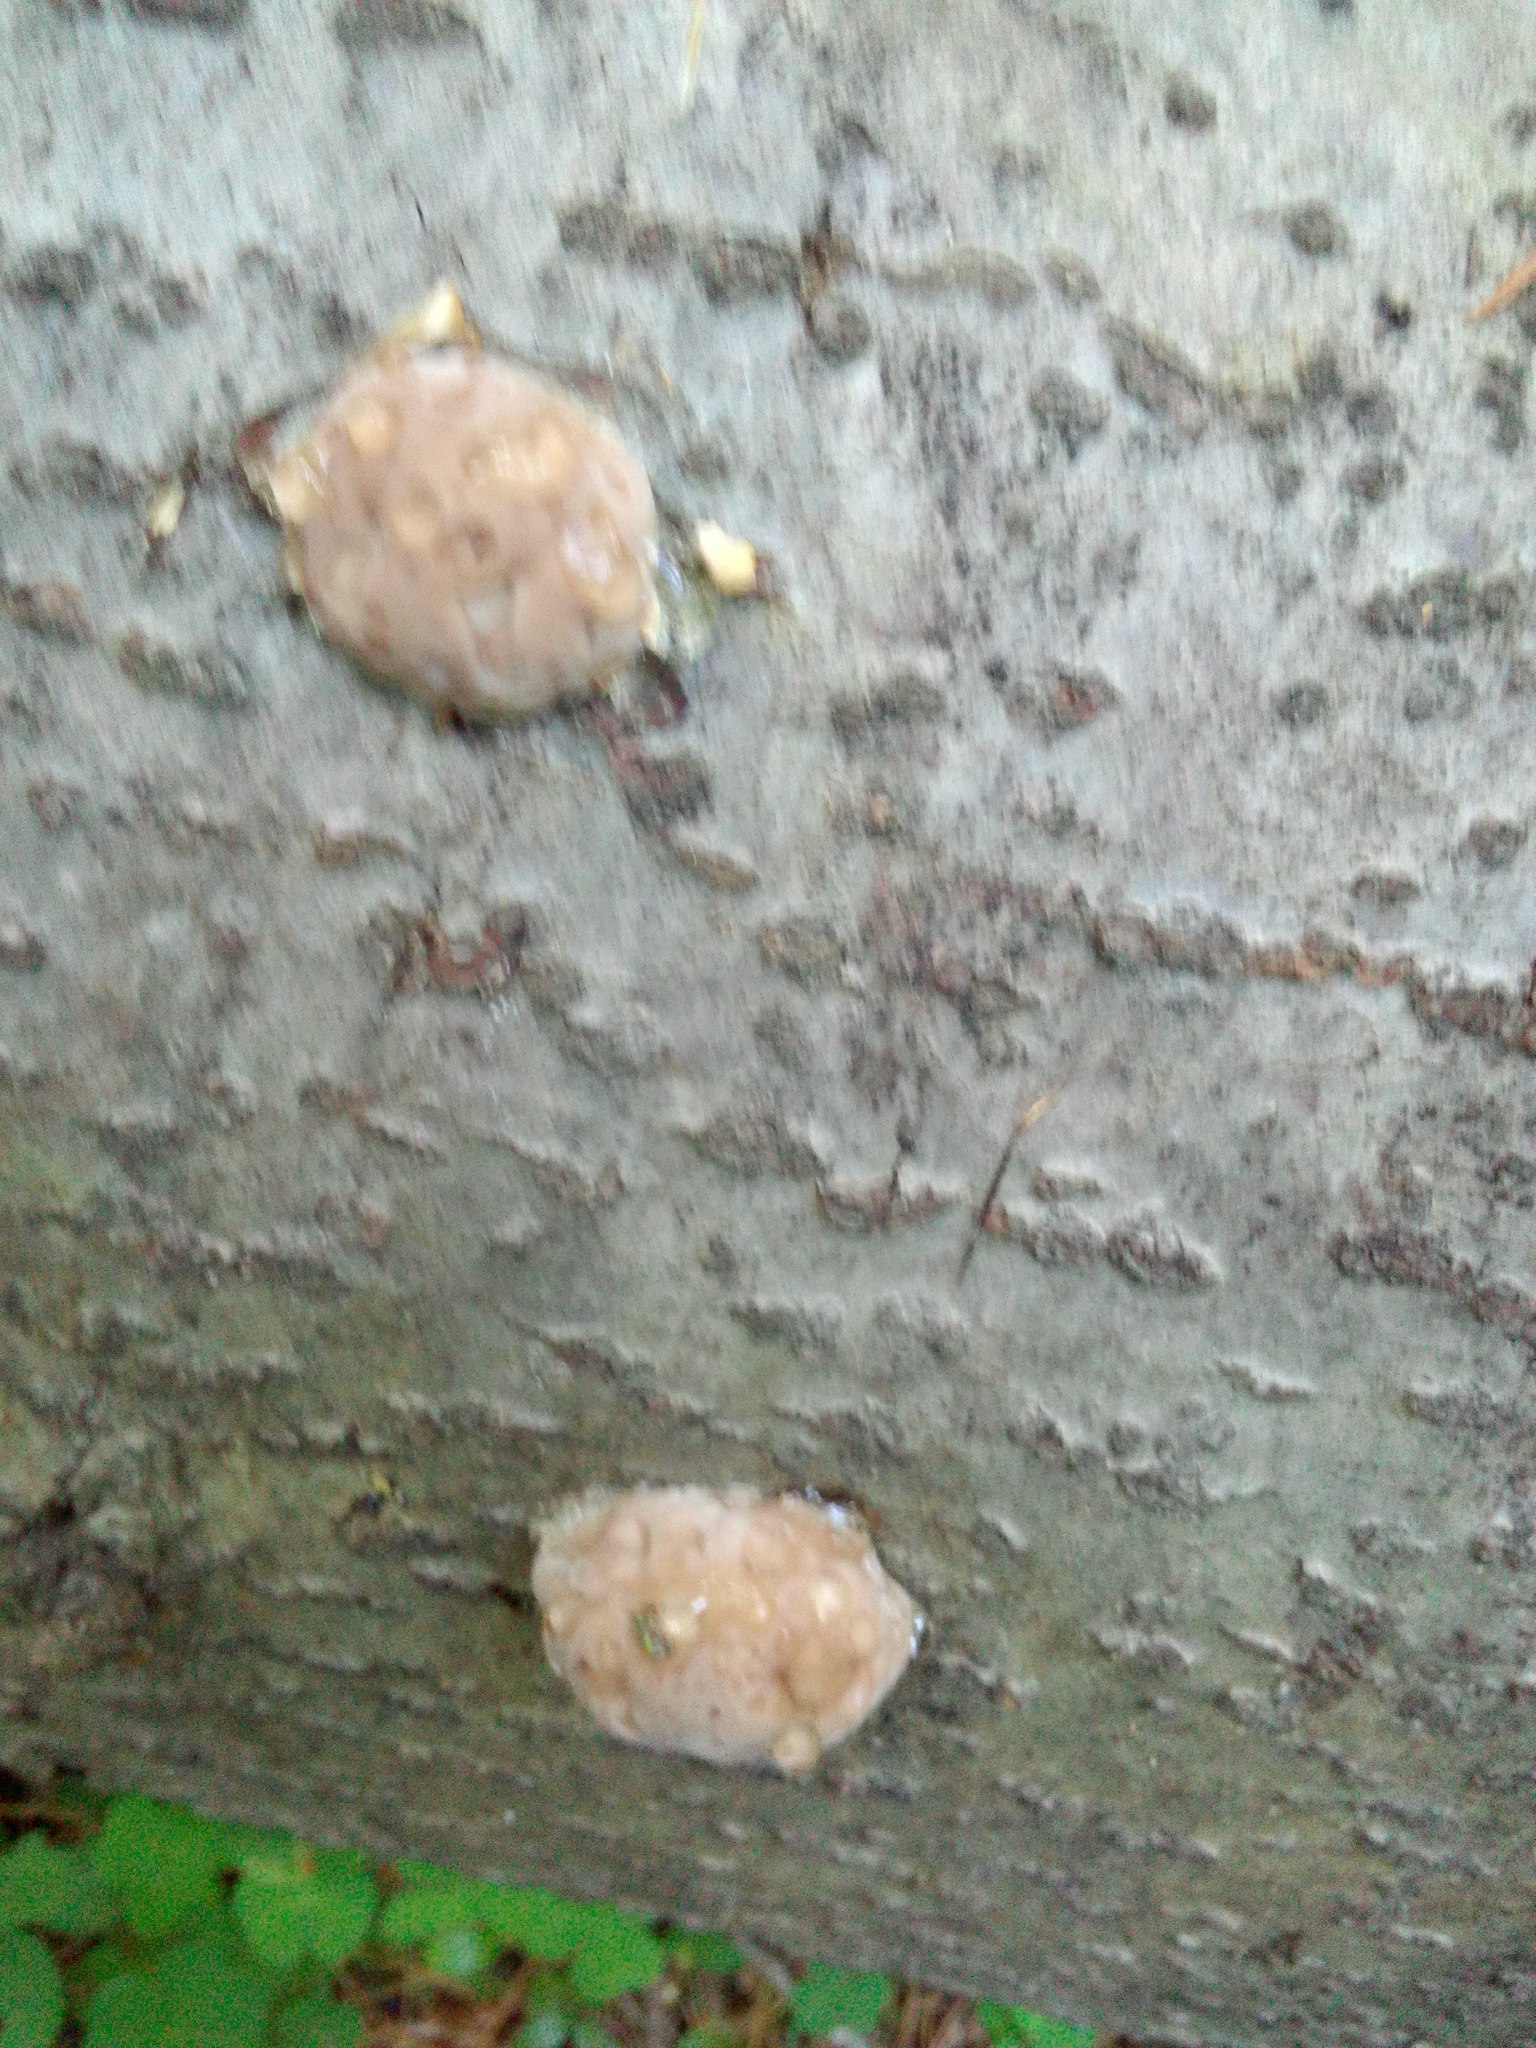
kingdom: Fungi
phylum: Basidiomycota
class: Agaricomycetes
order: Polyporales
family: Fomitopsidaceae
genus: Fomitopsis
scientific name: Fomitopsis pinicola
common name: Red-belted bracket
